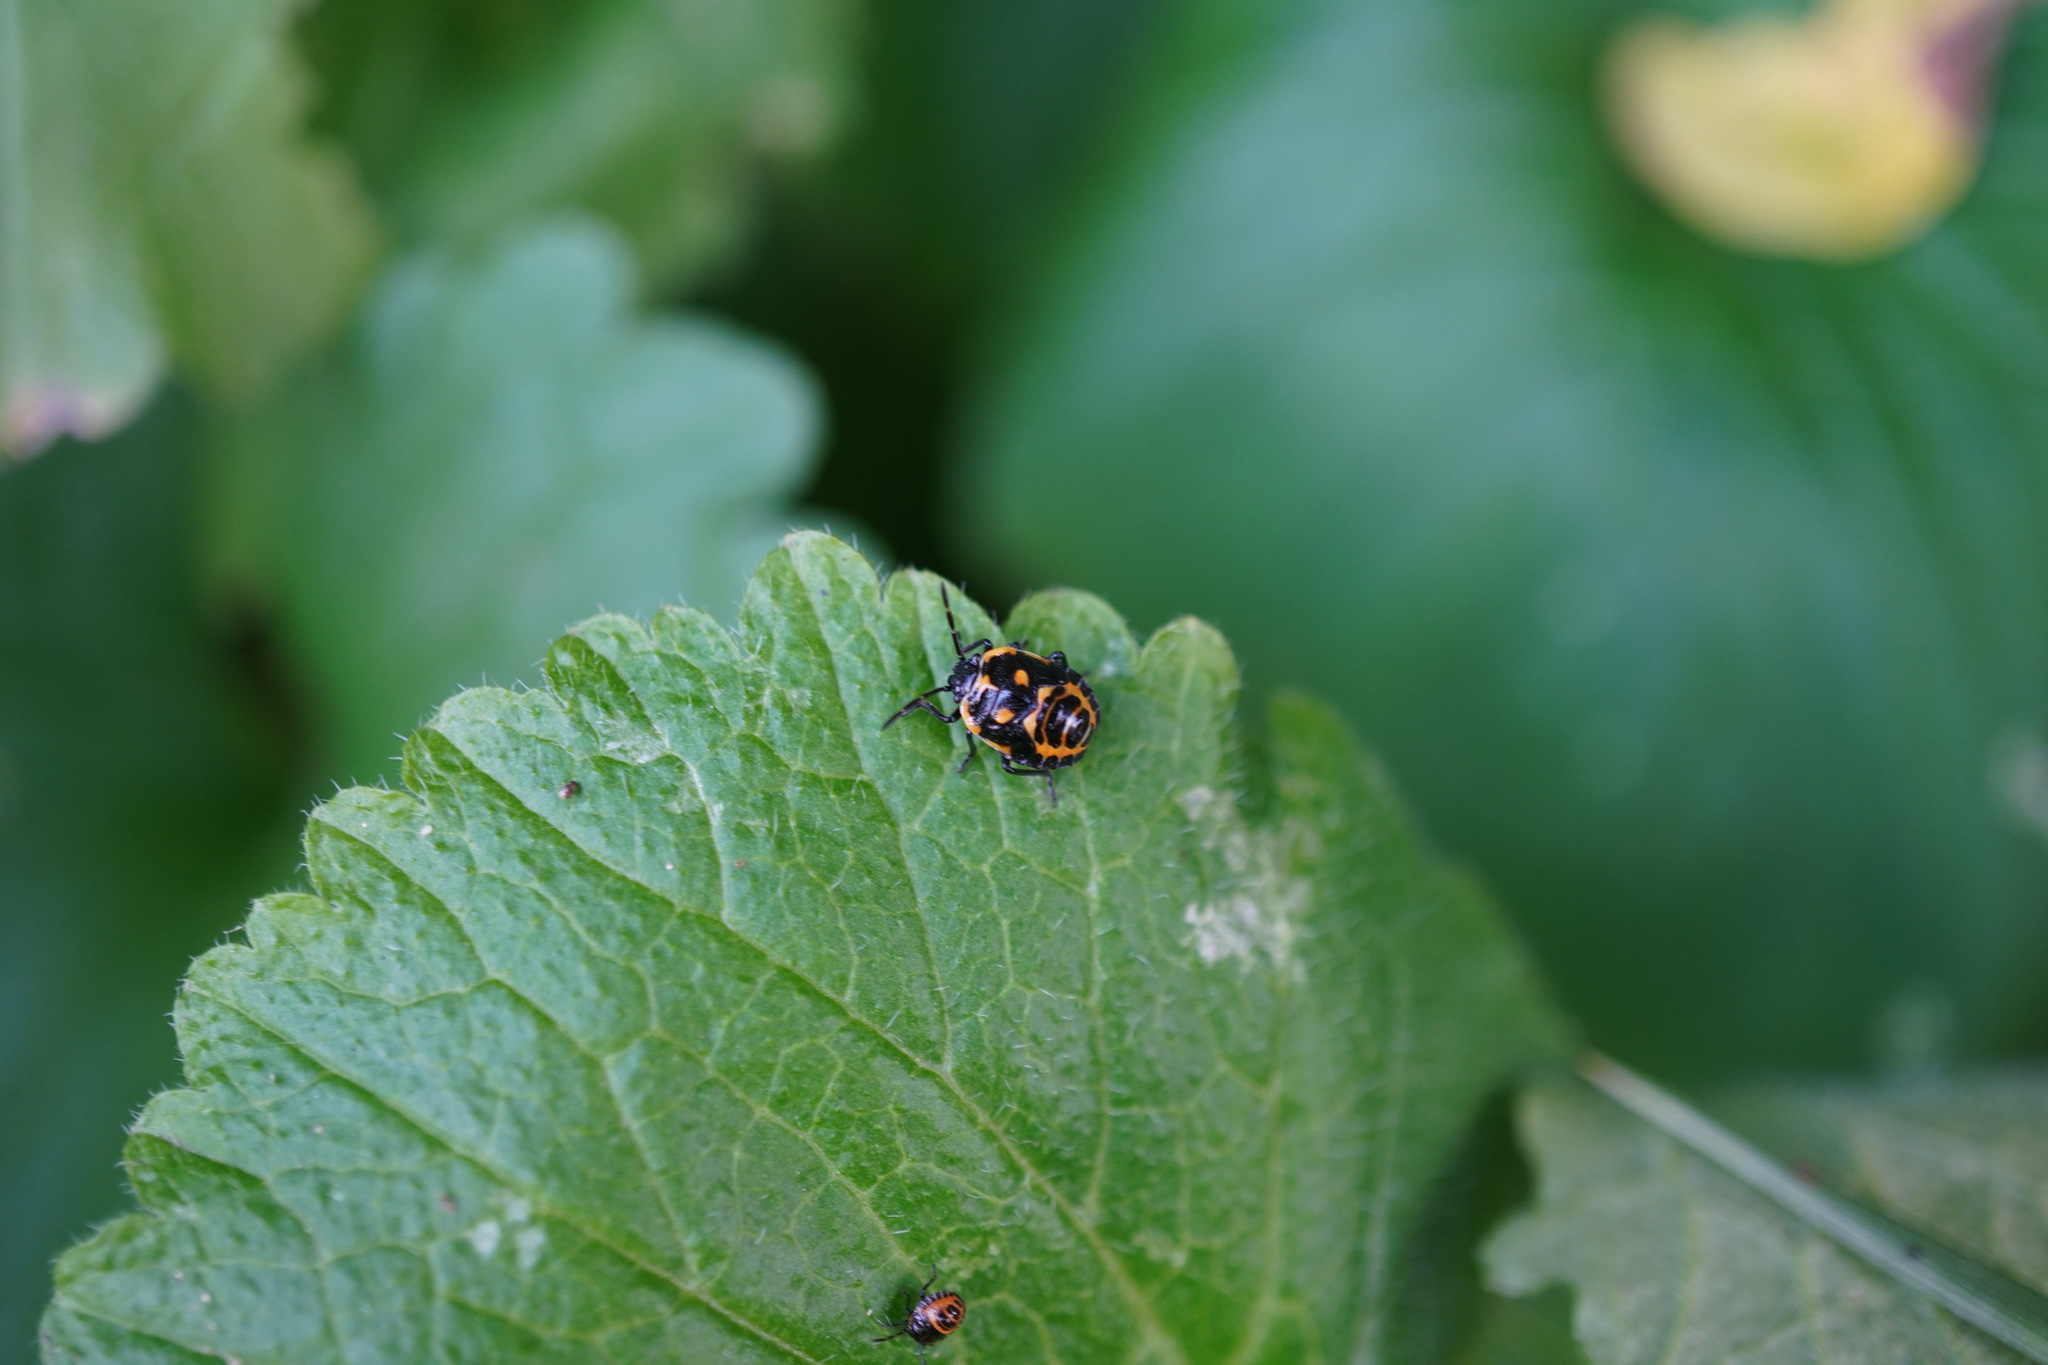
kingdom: Animalia
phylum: Arthropoda
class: Insecta
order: Hemiptera
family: Pentatomidae
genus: Eurydema
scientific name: Eurydema dominulus
